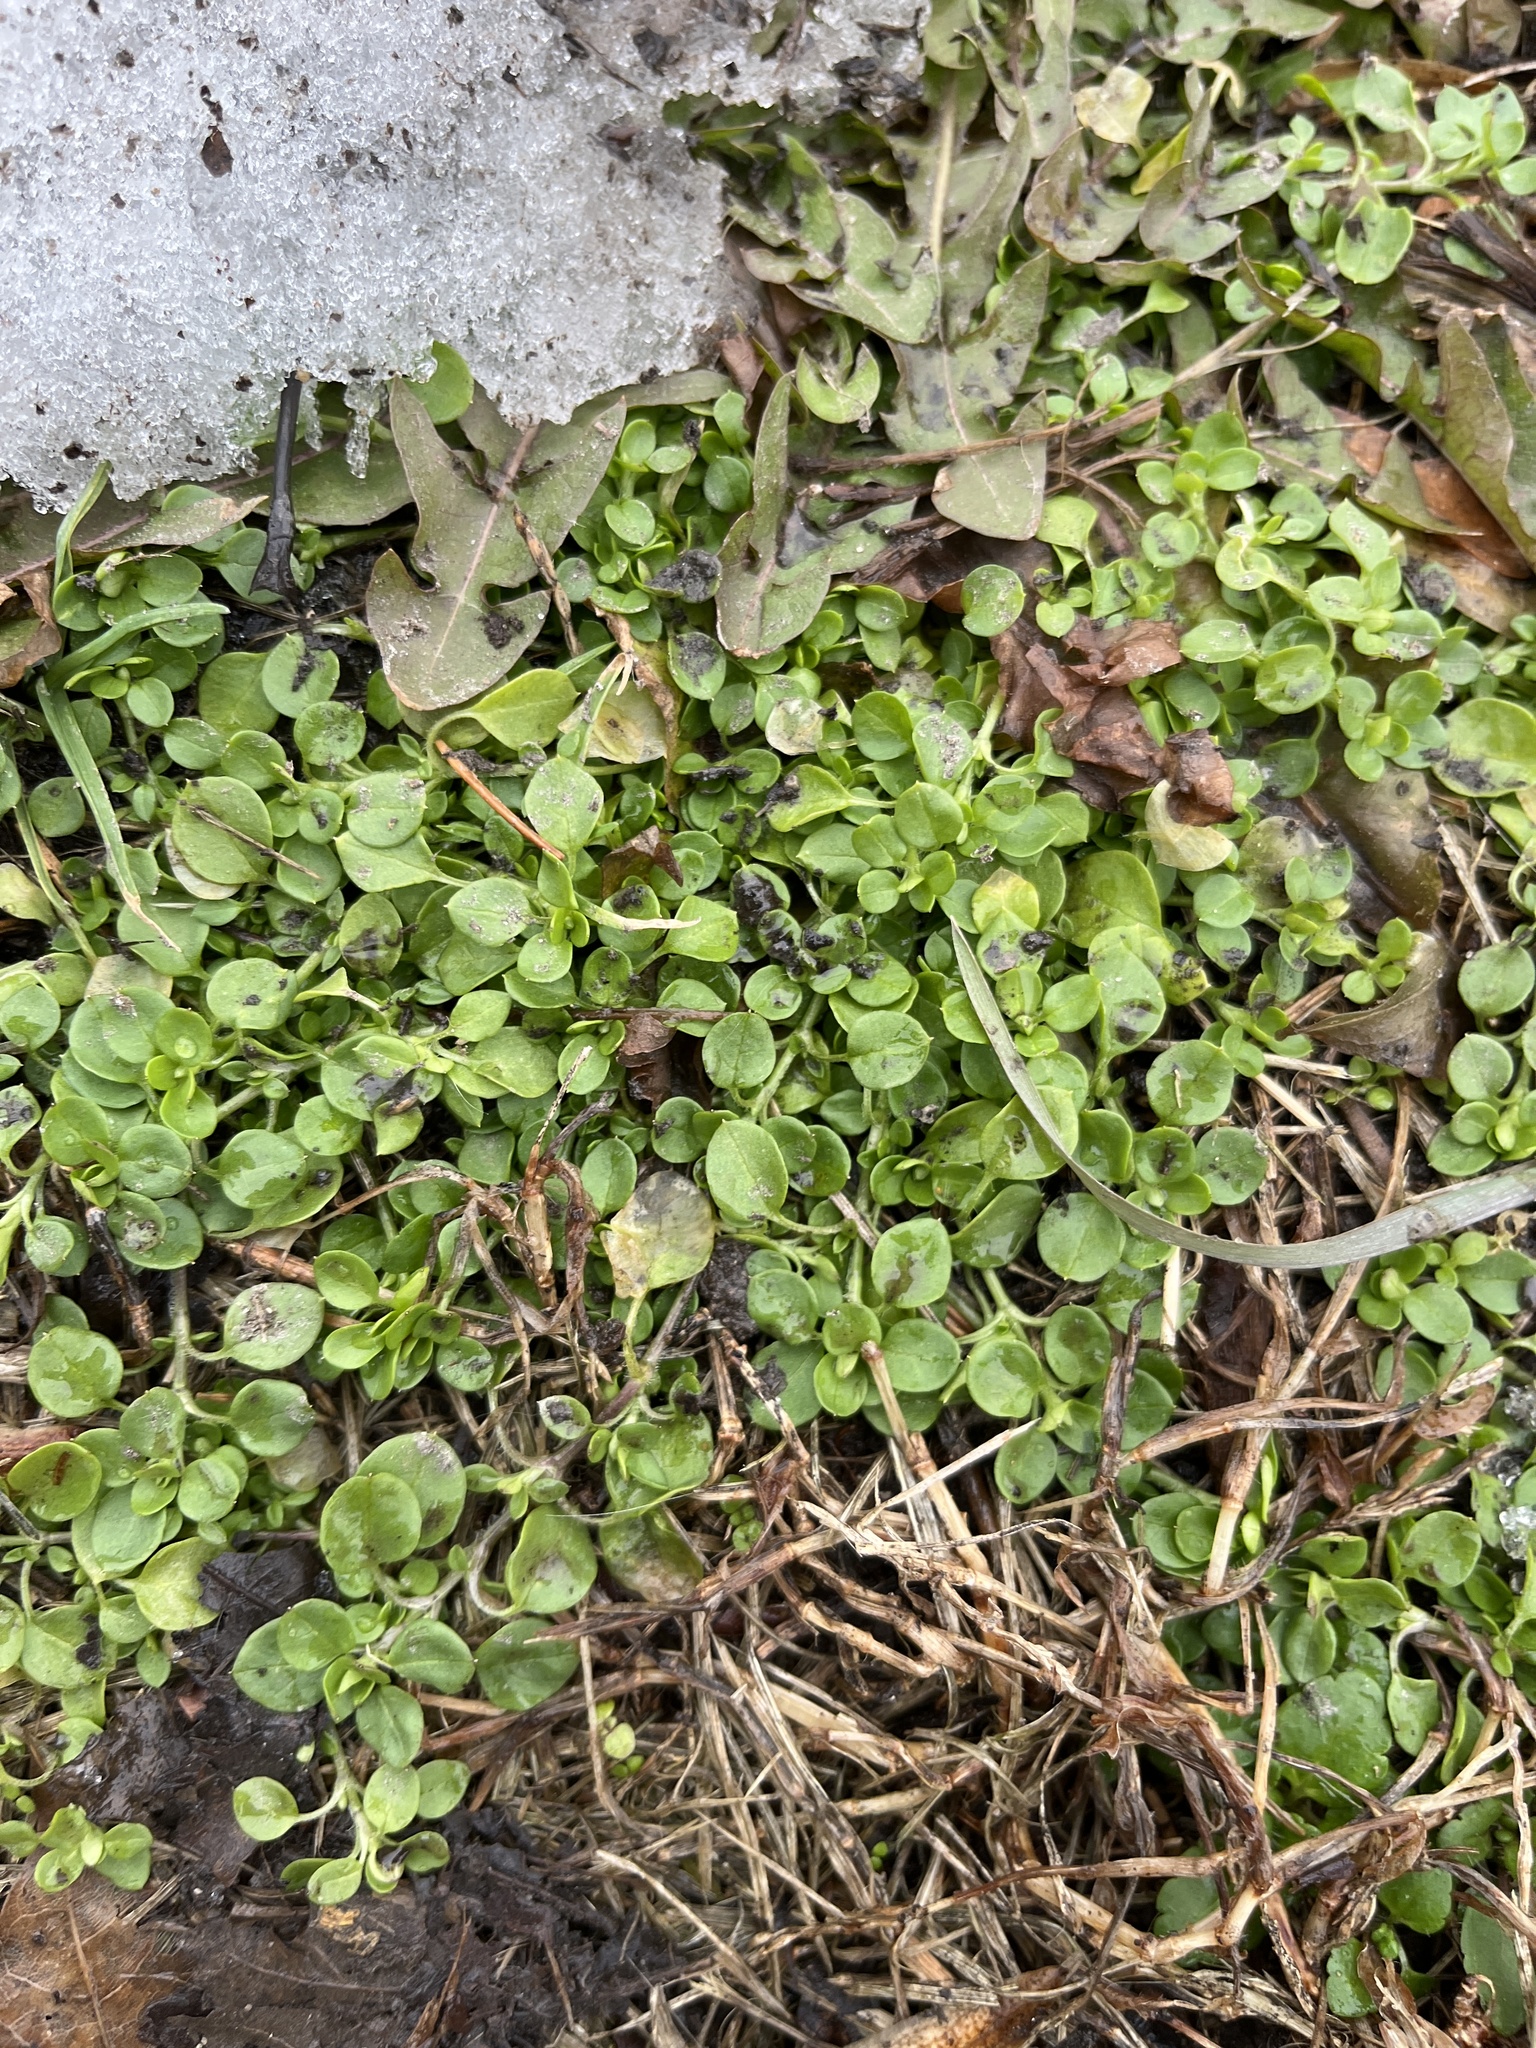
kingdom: Plantae
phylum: Tracheophyta
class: Magnoliopsida
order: Caryophyllales
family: Caryophyllaceae
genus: Stellaria
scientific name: Stellaria media
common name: Common chickweed
